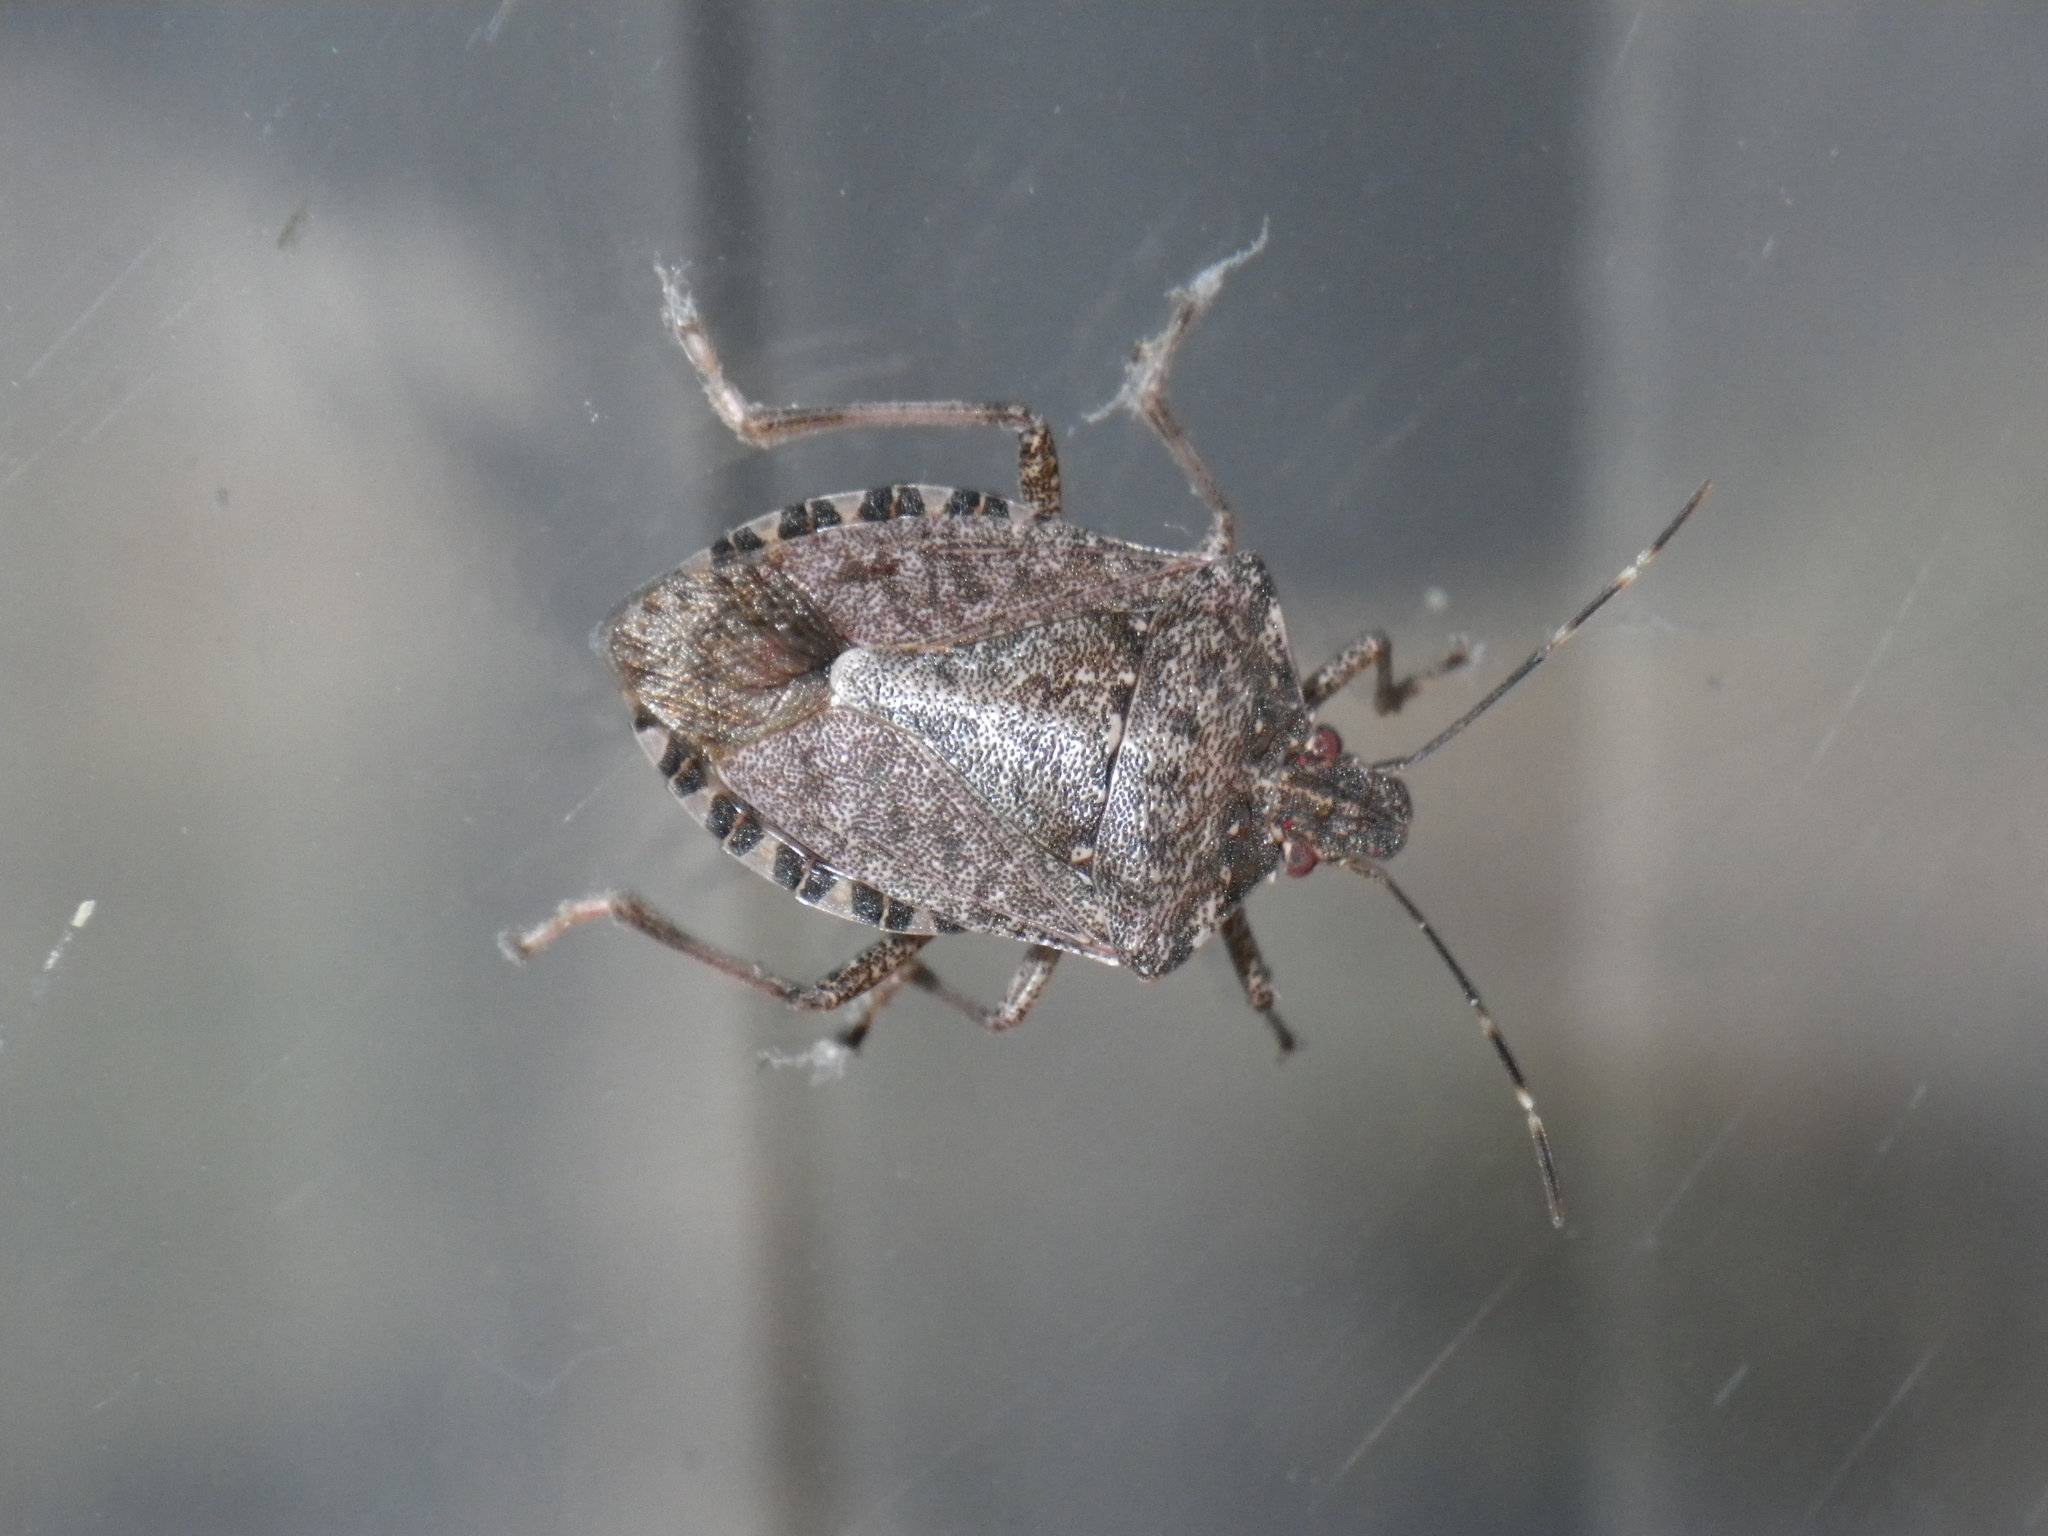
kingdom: Animalia
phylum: Arthropoda
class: Insecta
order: Hemiptera
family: Pentatomidae
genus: Halyomorpha
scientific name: Halyomorpha halys
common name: Brown marmorated stink bug
